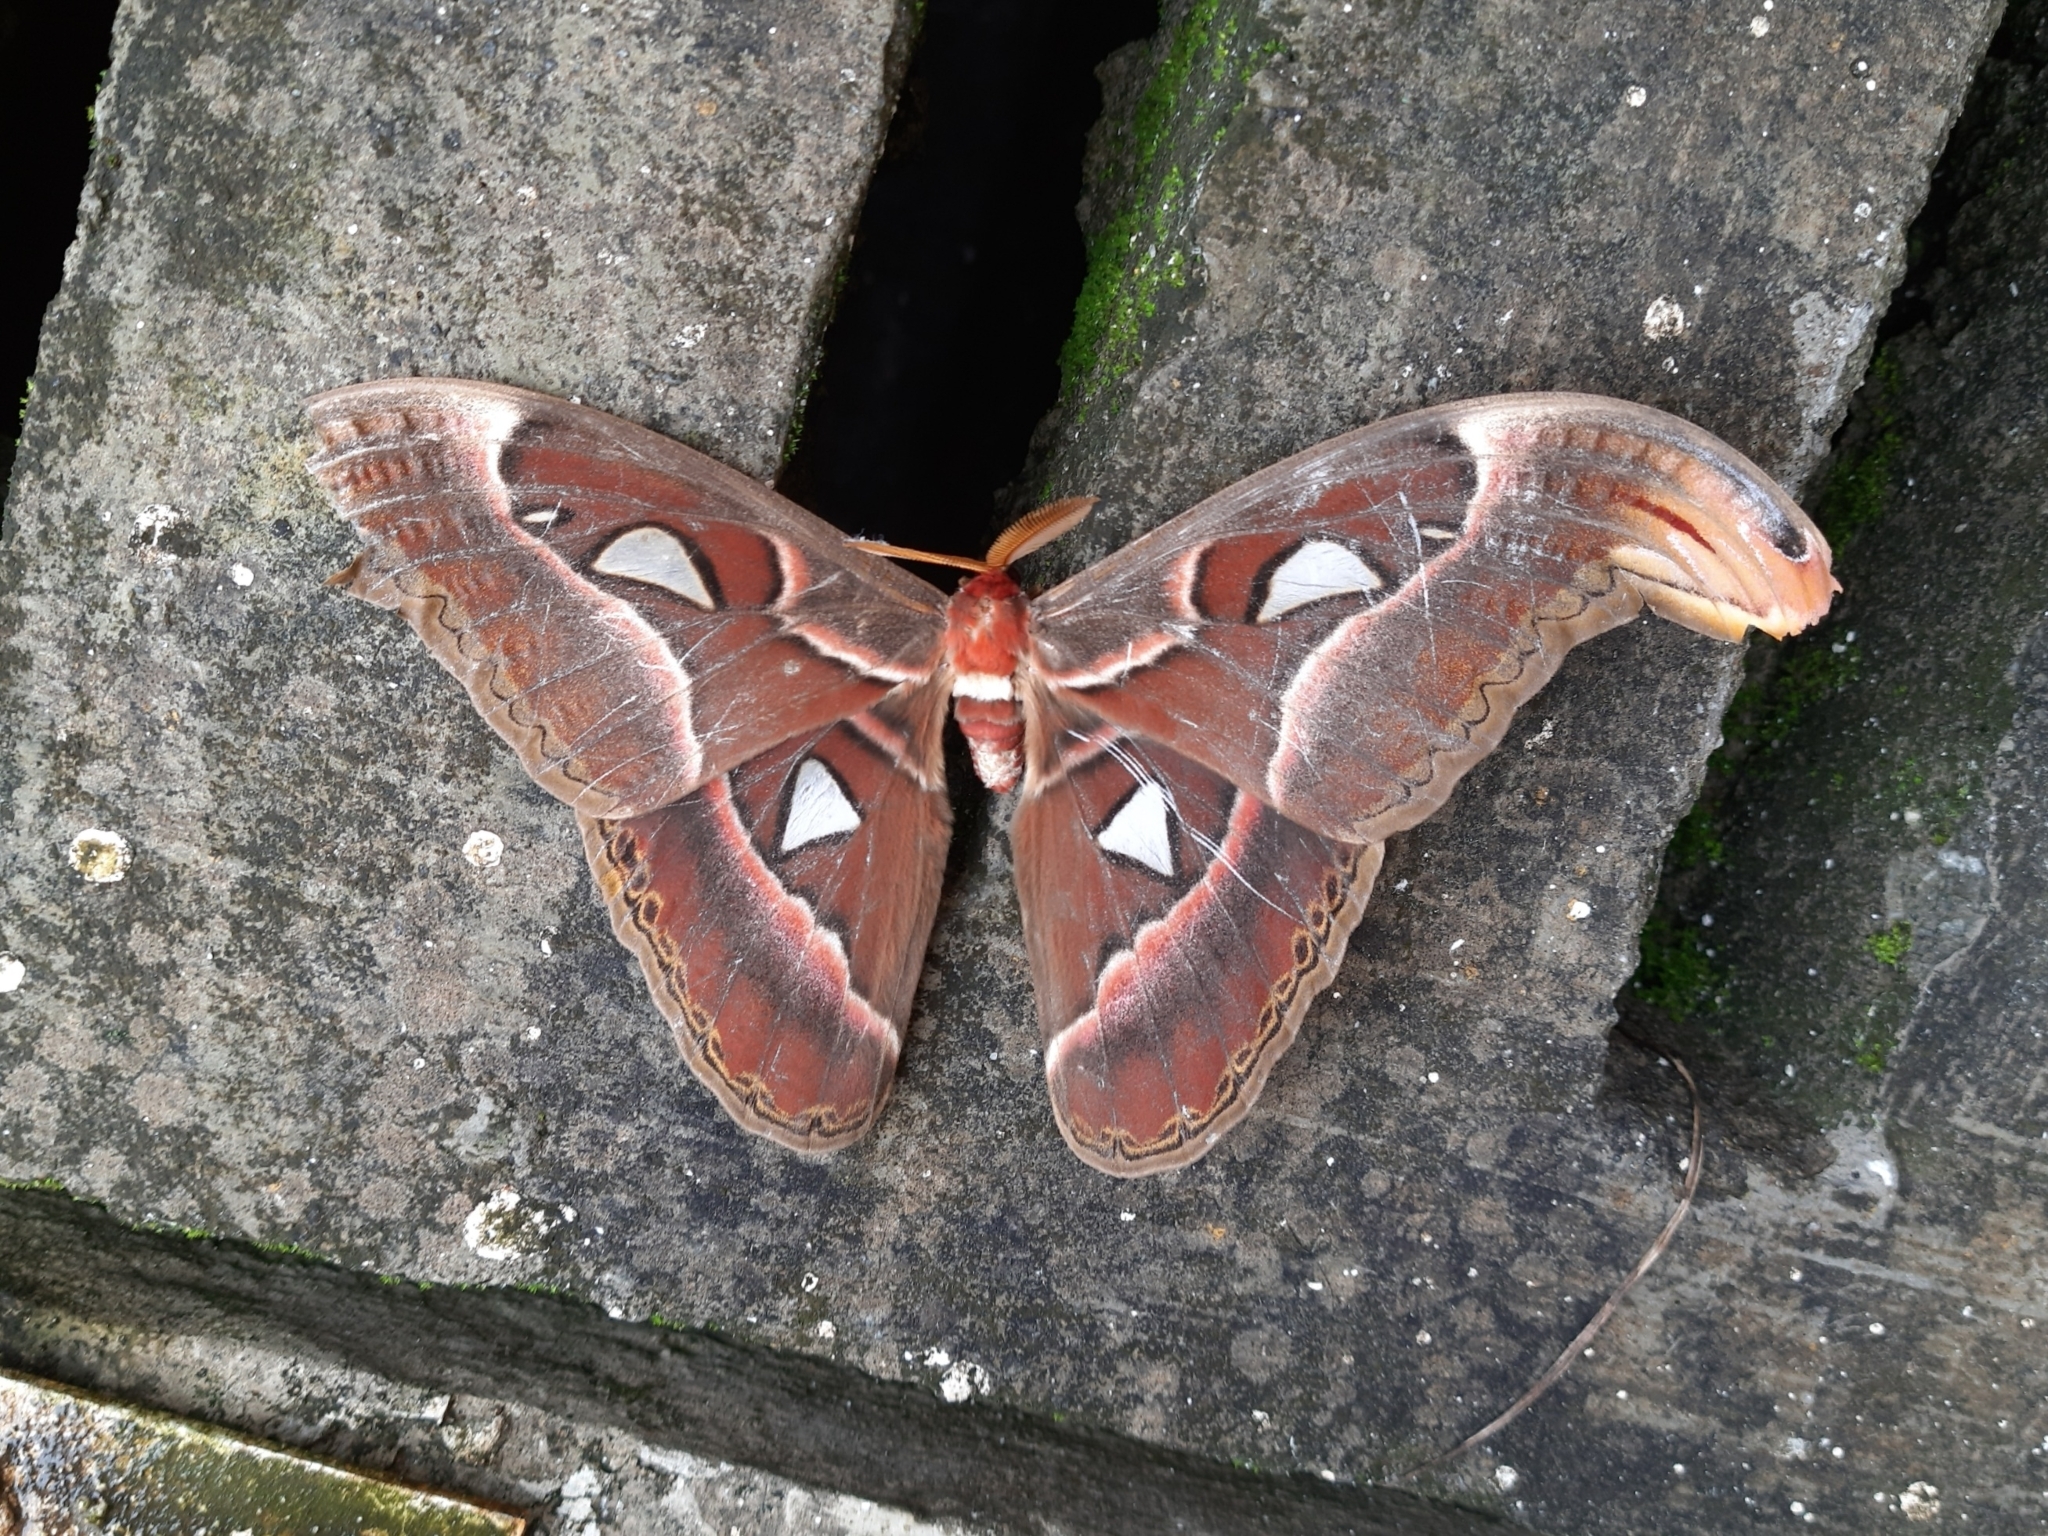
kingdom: Animalia
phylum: Arthropoda
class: Insecta
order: Lepidoptera
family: Saturniidae
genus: Attacus
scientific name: Attacus taprobanis
